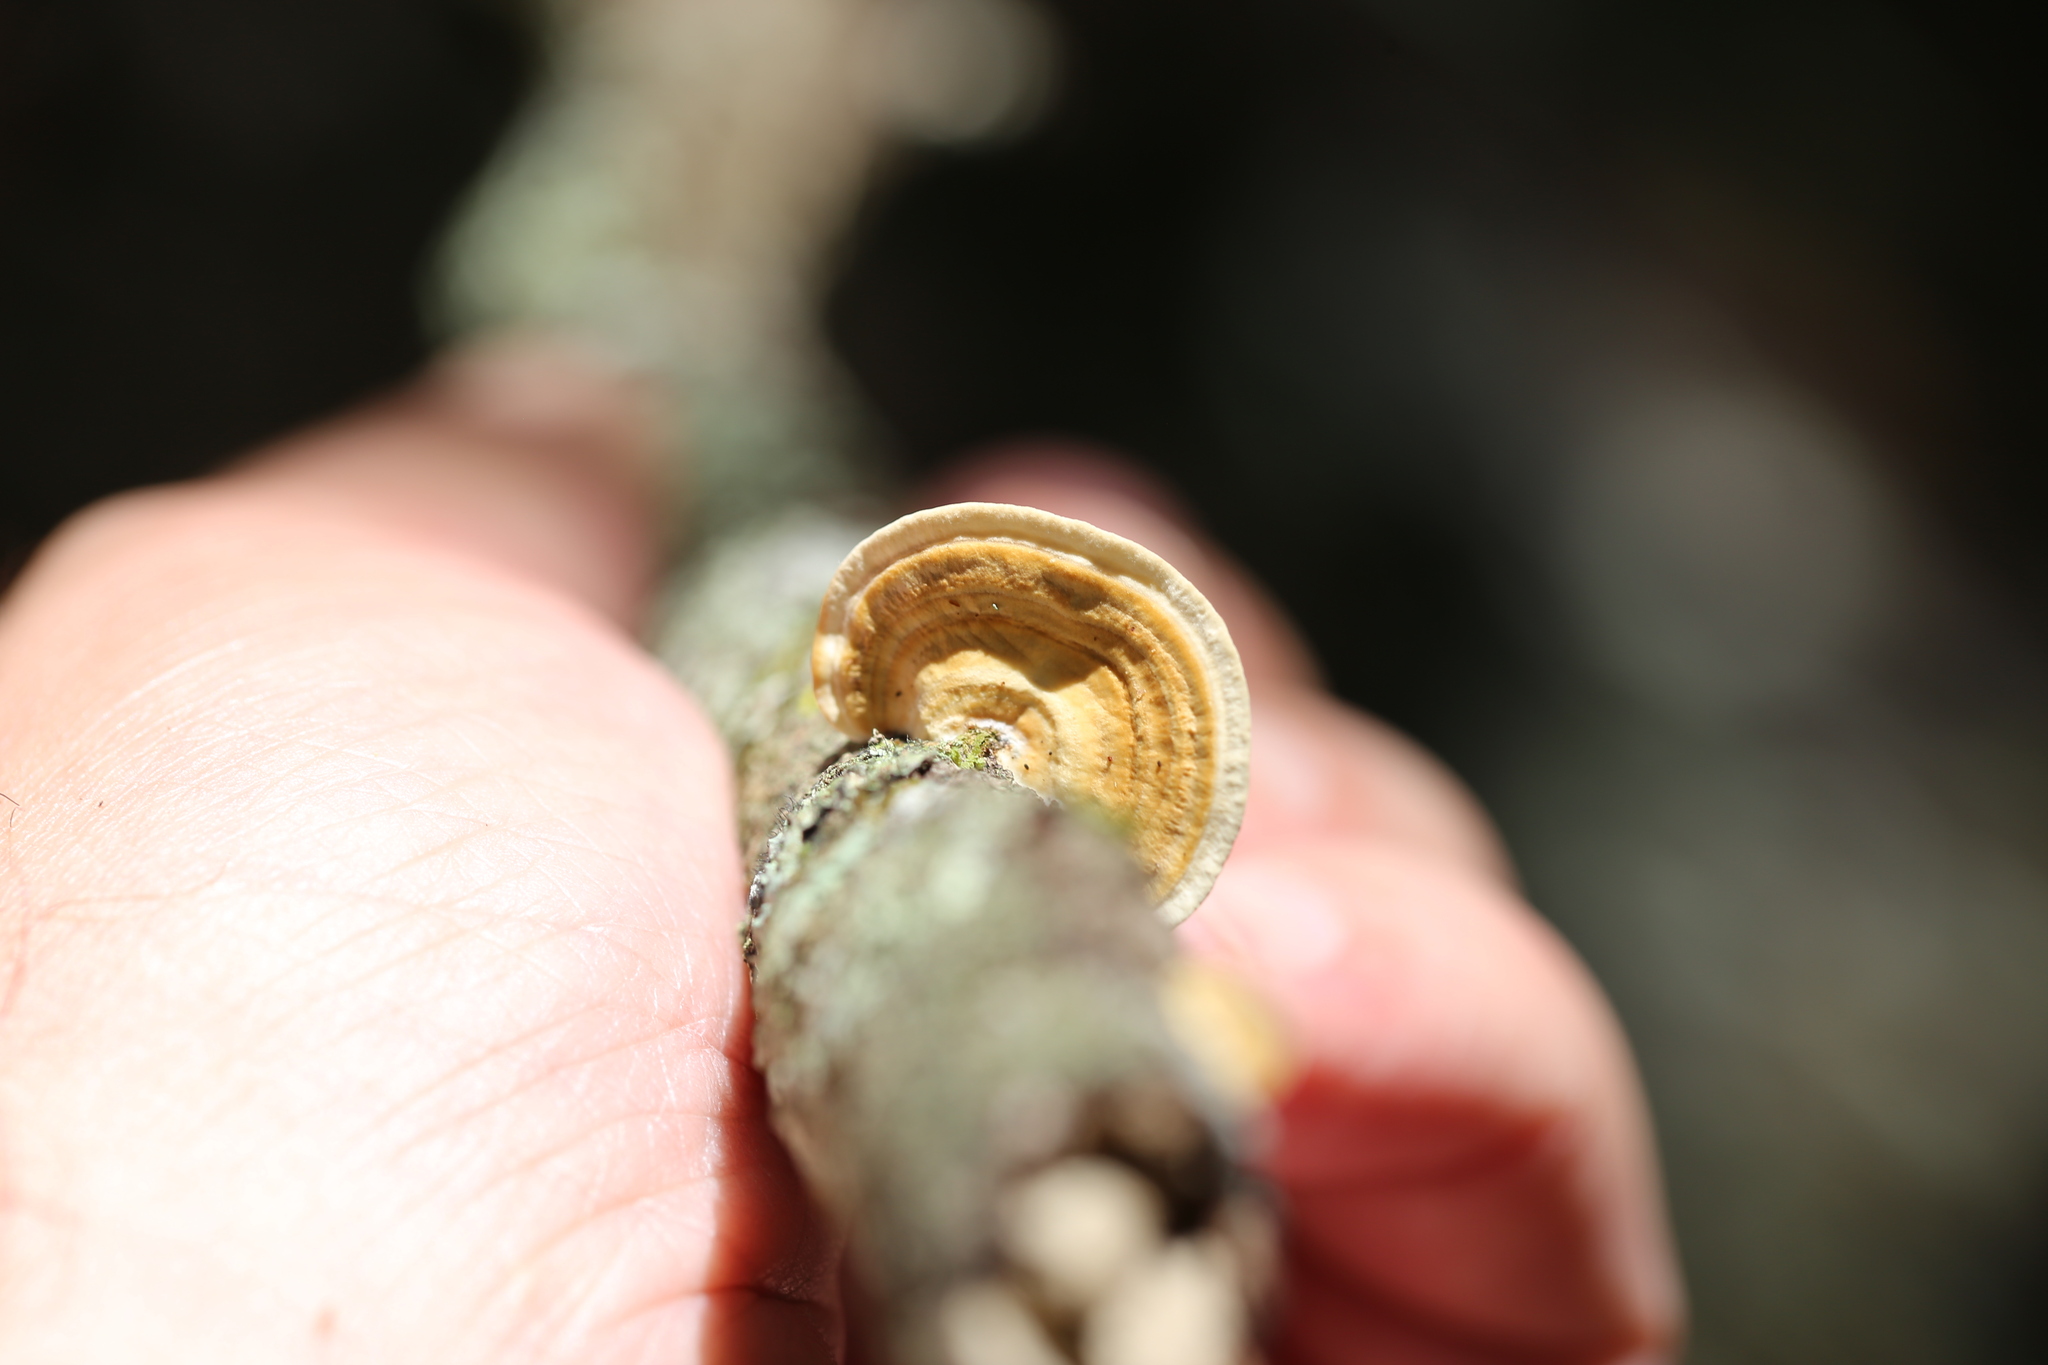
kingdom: Fungi
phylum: Basidiomycota
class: Agaricomycetes
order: Polyporales
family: Polyporaceae
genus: Pseudofavolus
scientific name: Pseudofavolus tenuis
